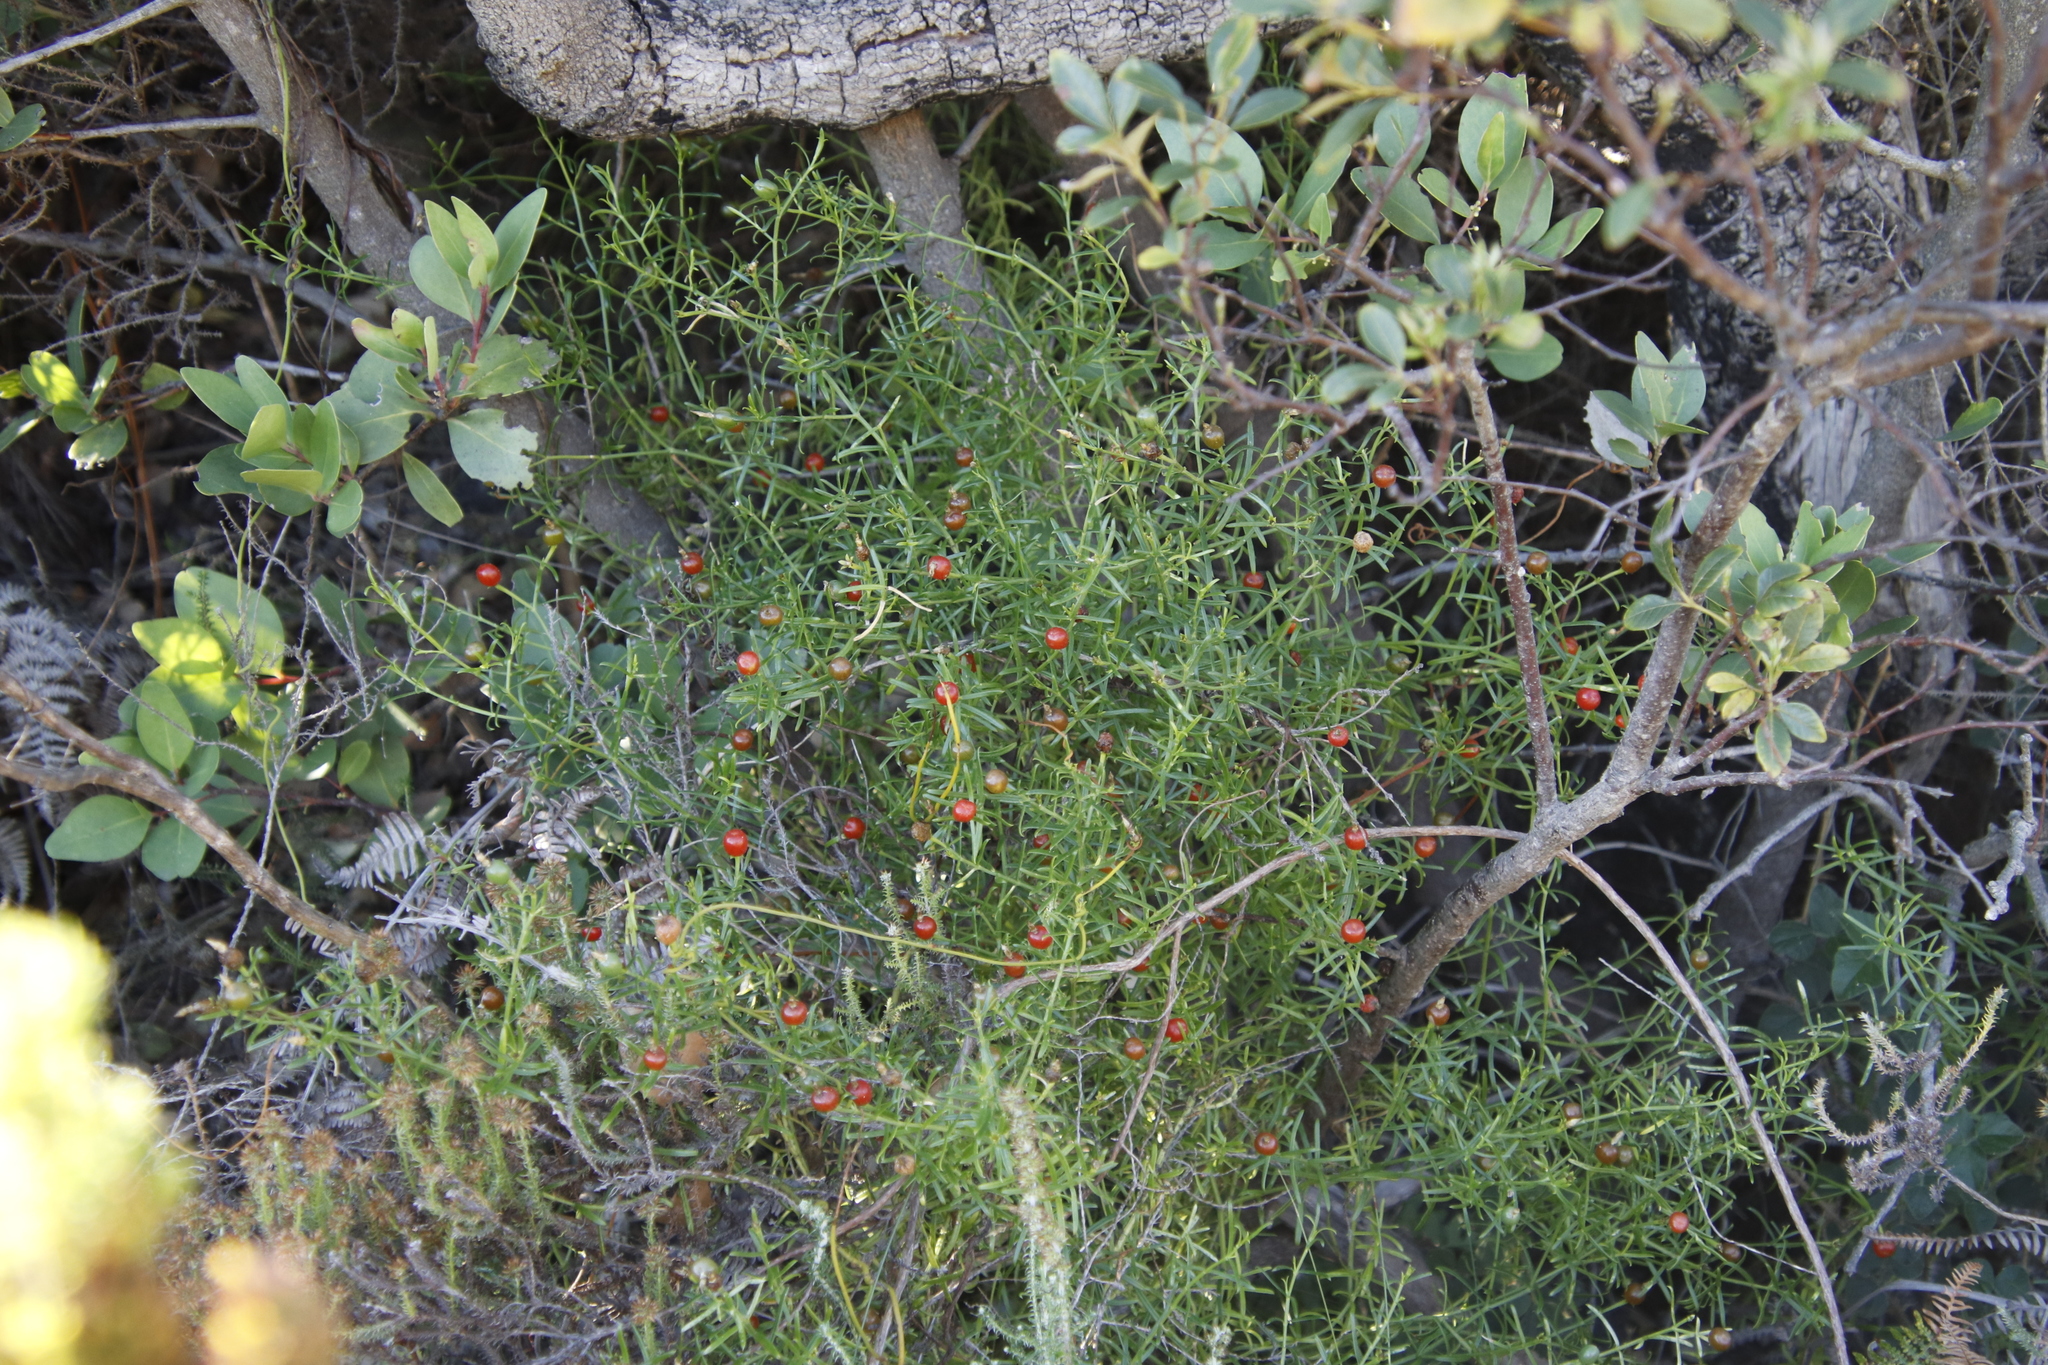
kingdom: Plantae
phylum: Tracheophyta
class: Magnoliopsida
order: Gentianales
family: Gentianaceae
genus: Chironia
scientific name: Chironia baccifera
